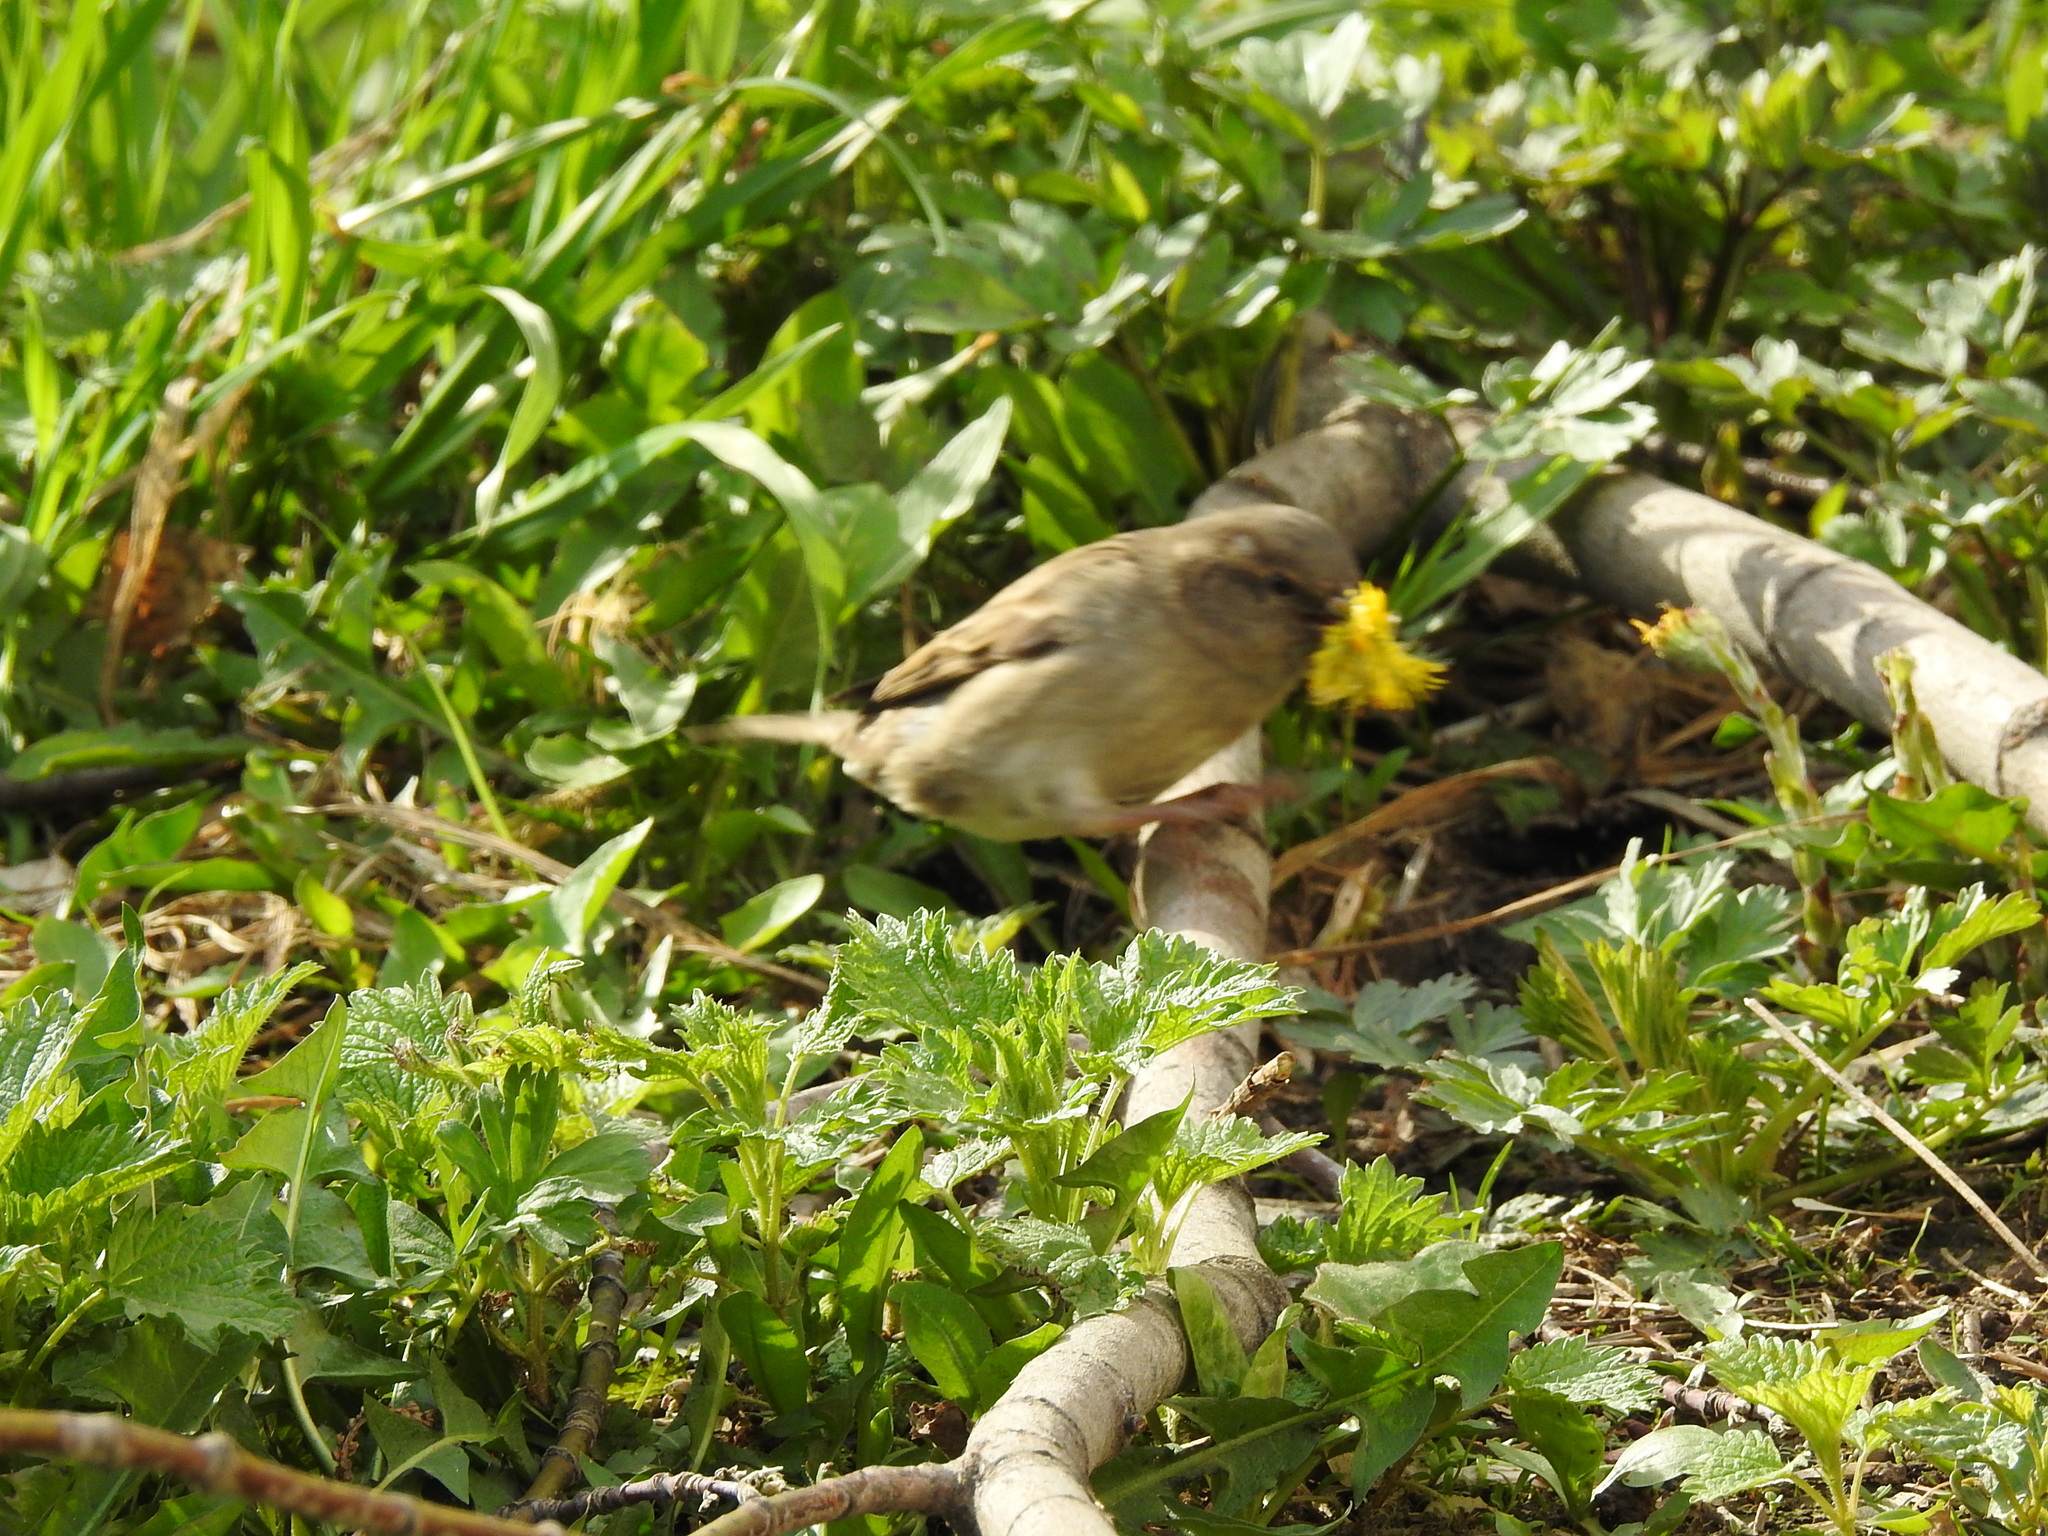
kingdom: Animalia
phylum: Chordata
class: Aves
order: Passeriformes
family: Passeridae
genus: Passer
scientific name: Passer domesticus
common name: House sparrow
